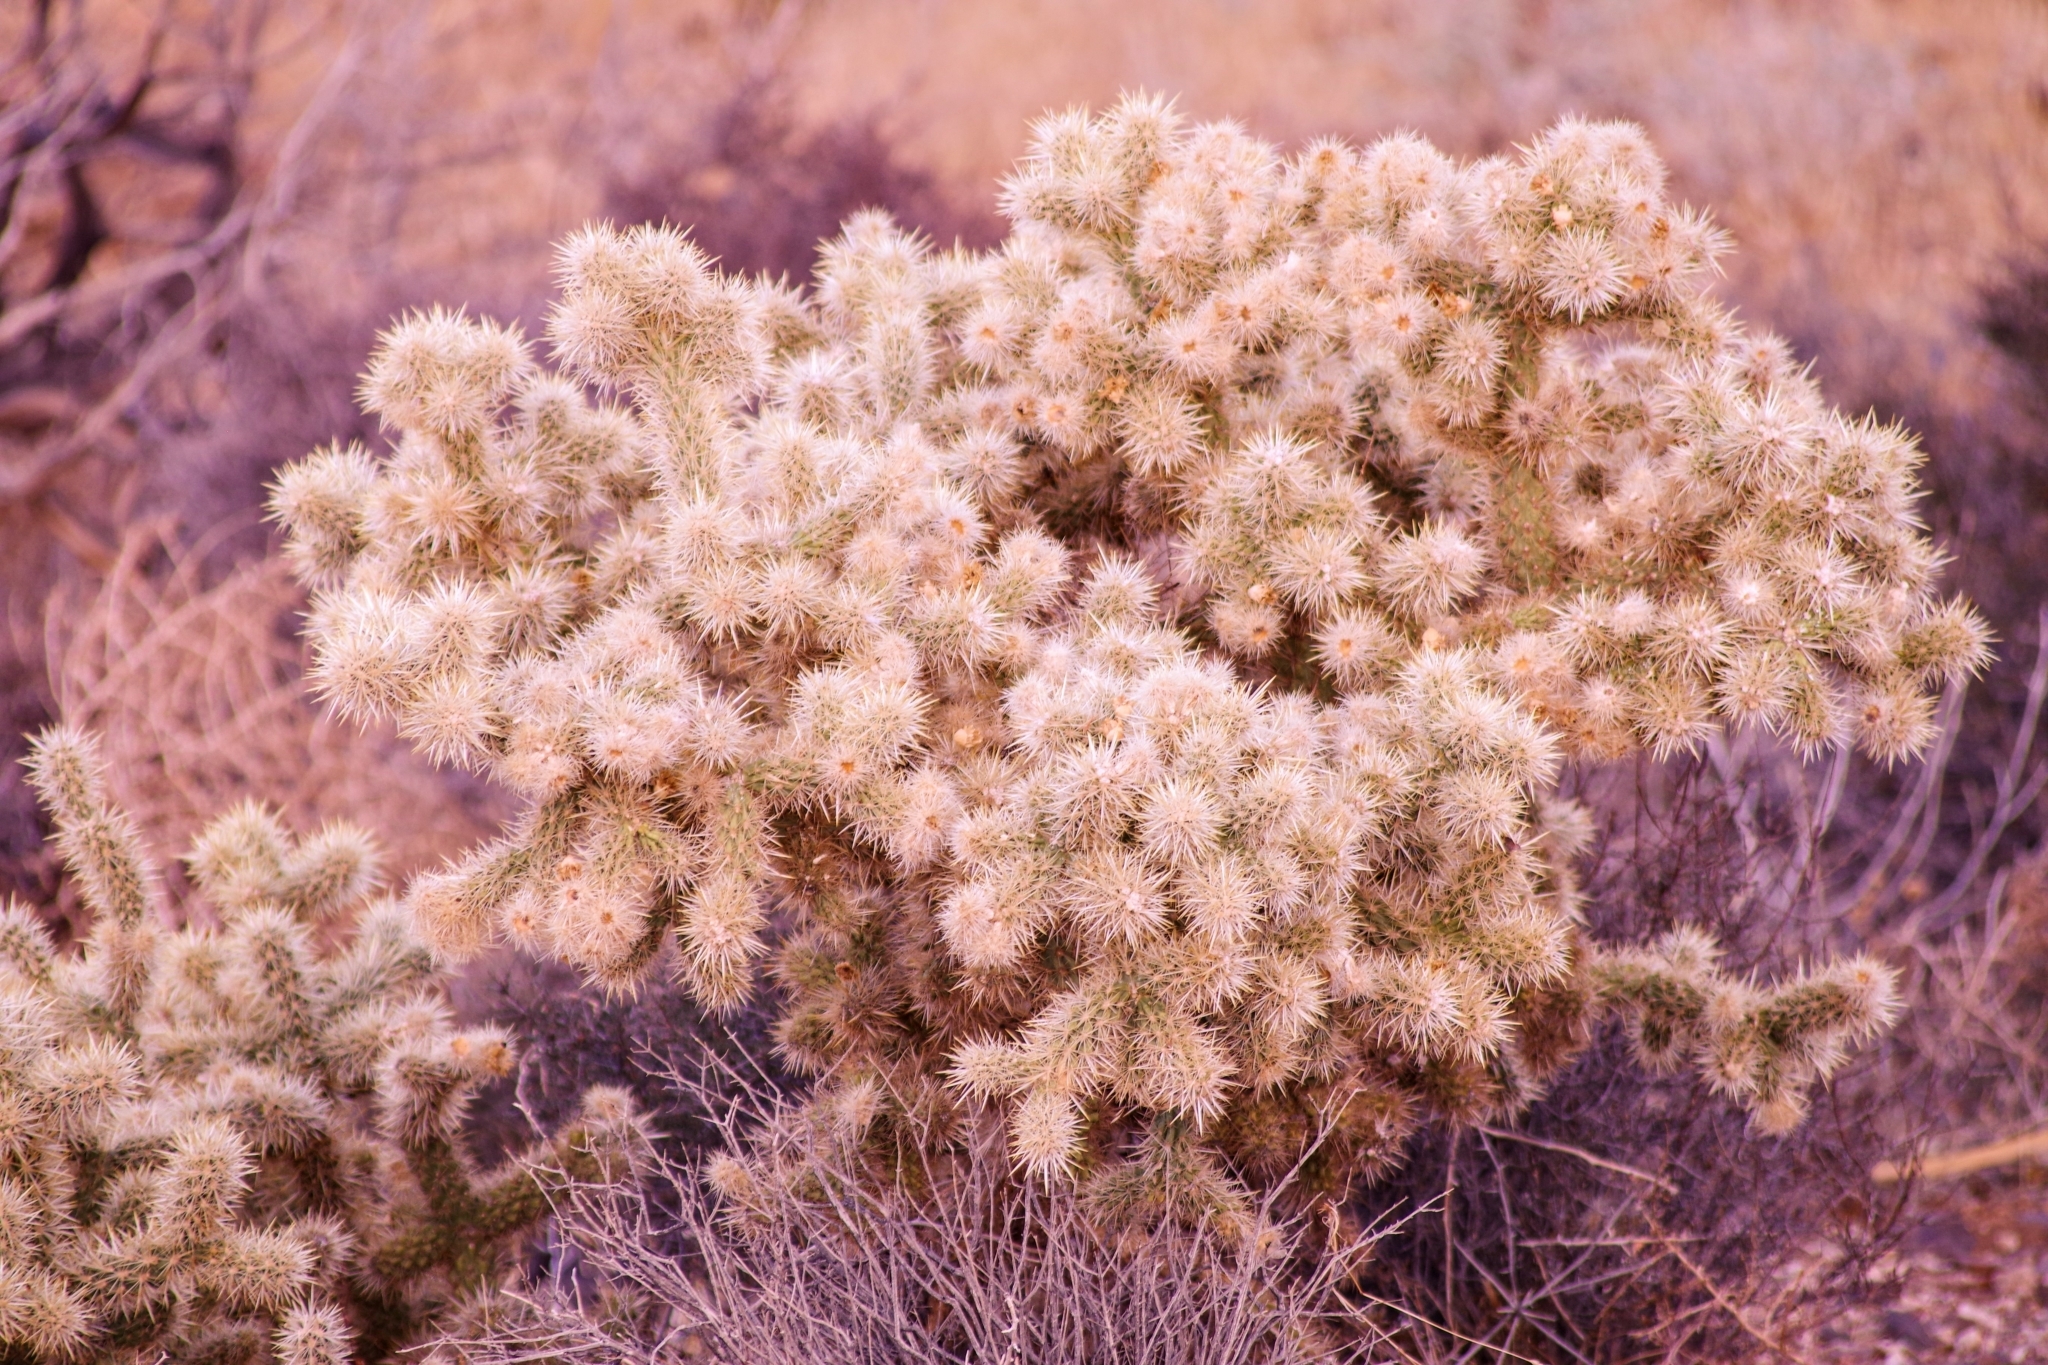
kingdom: Plantae
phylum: Tracheophyta
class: Magnoliopsida
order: Caryophyllales
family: Cactaceae
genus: Cylindropuntia
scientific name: Cylindropuntia echinocarpa
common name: Ground cholla
